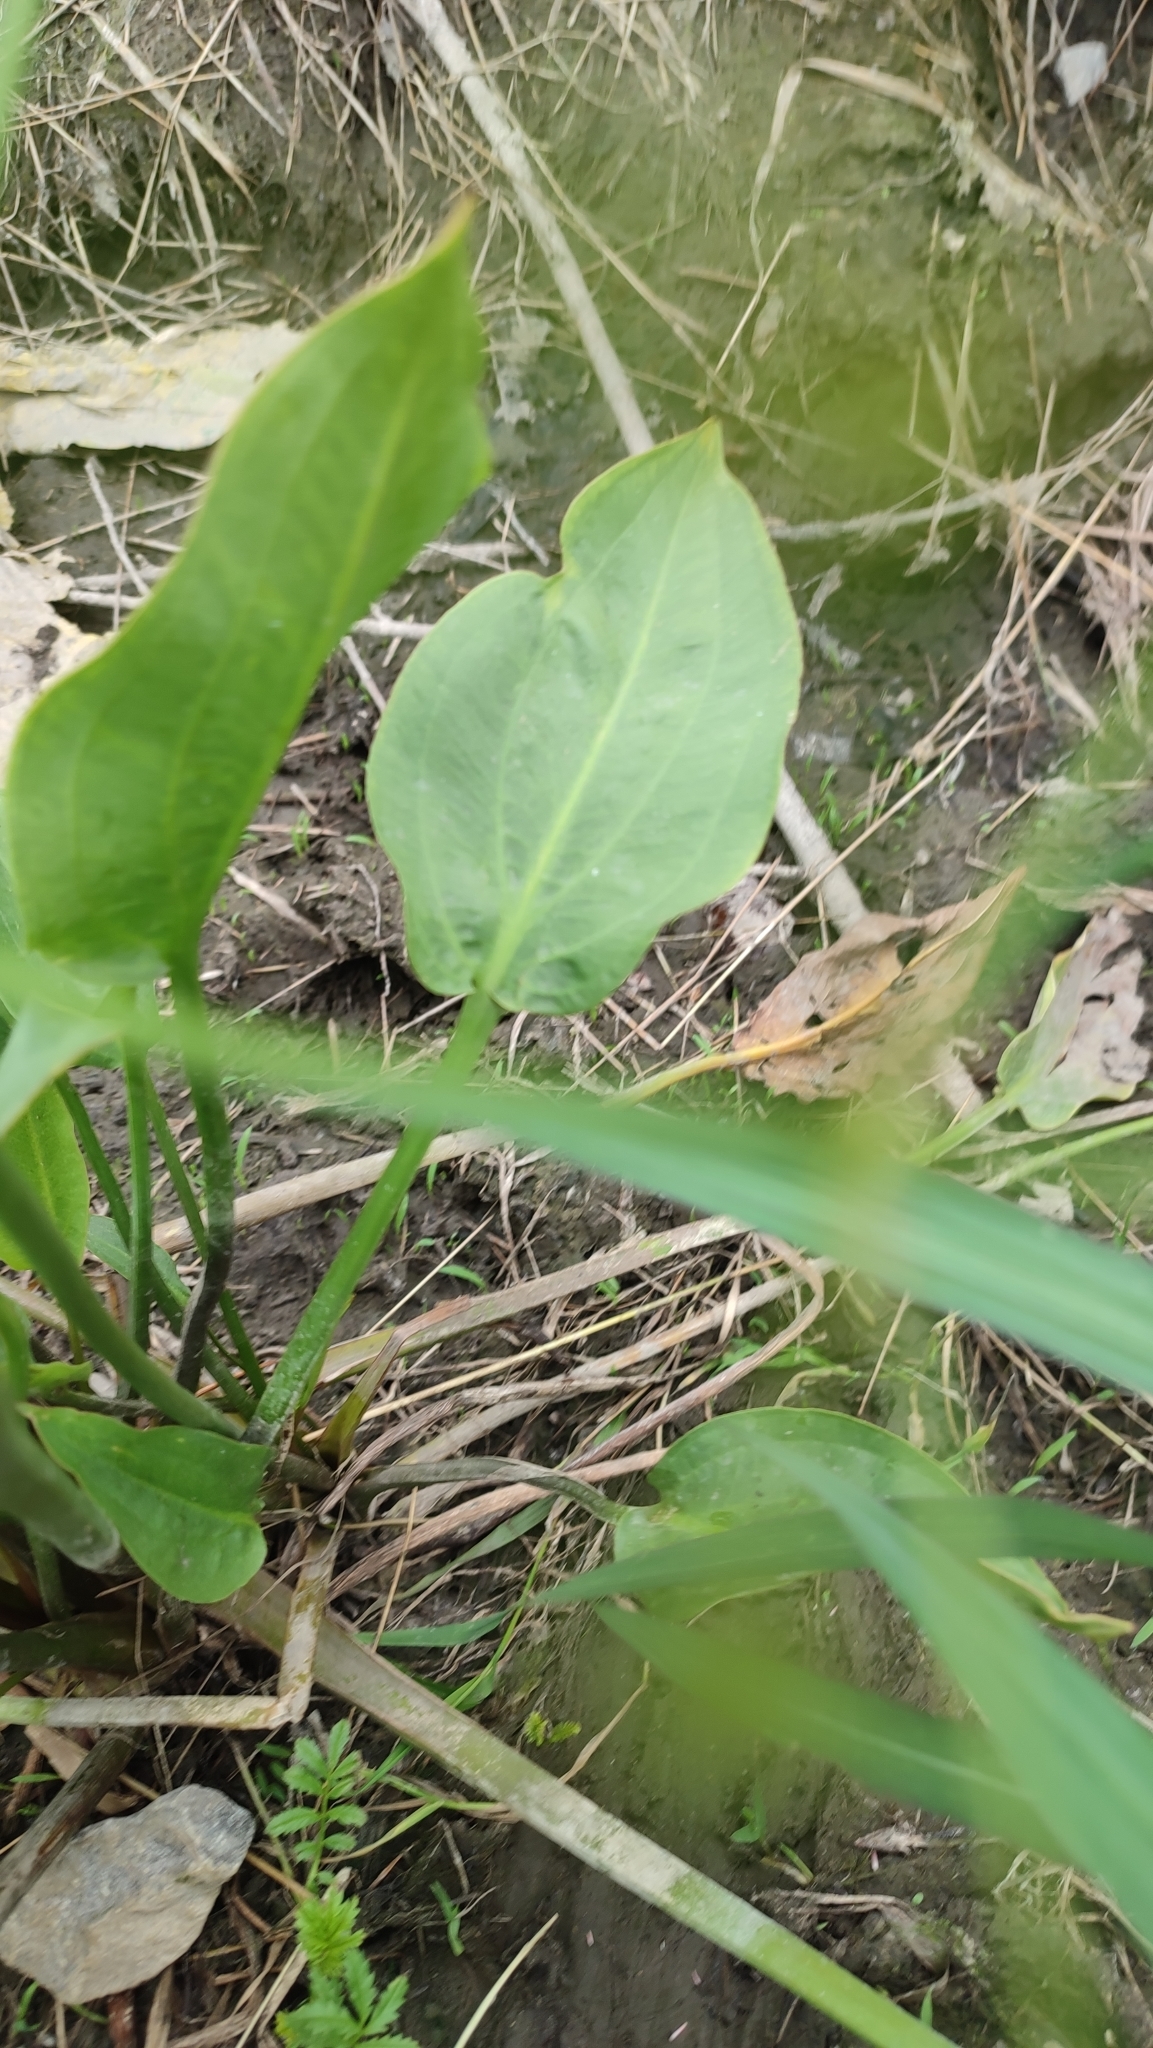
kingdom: Plantae
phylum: Tracheophyta
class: Liliopsida
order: Alismatales
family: Alismataceae
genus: Alisma
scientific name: Alisma plantago-aquatica
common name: Water-plantain
